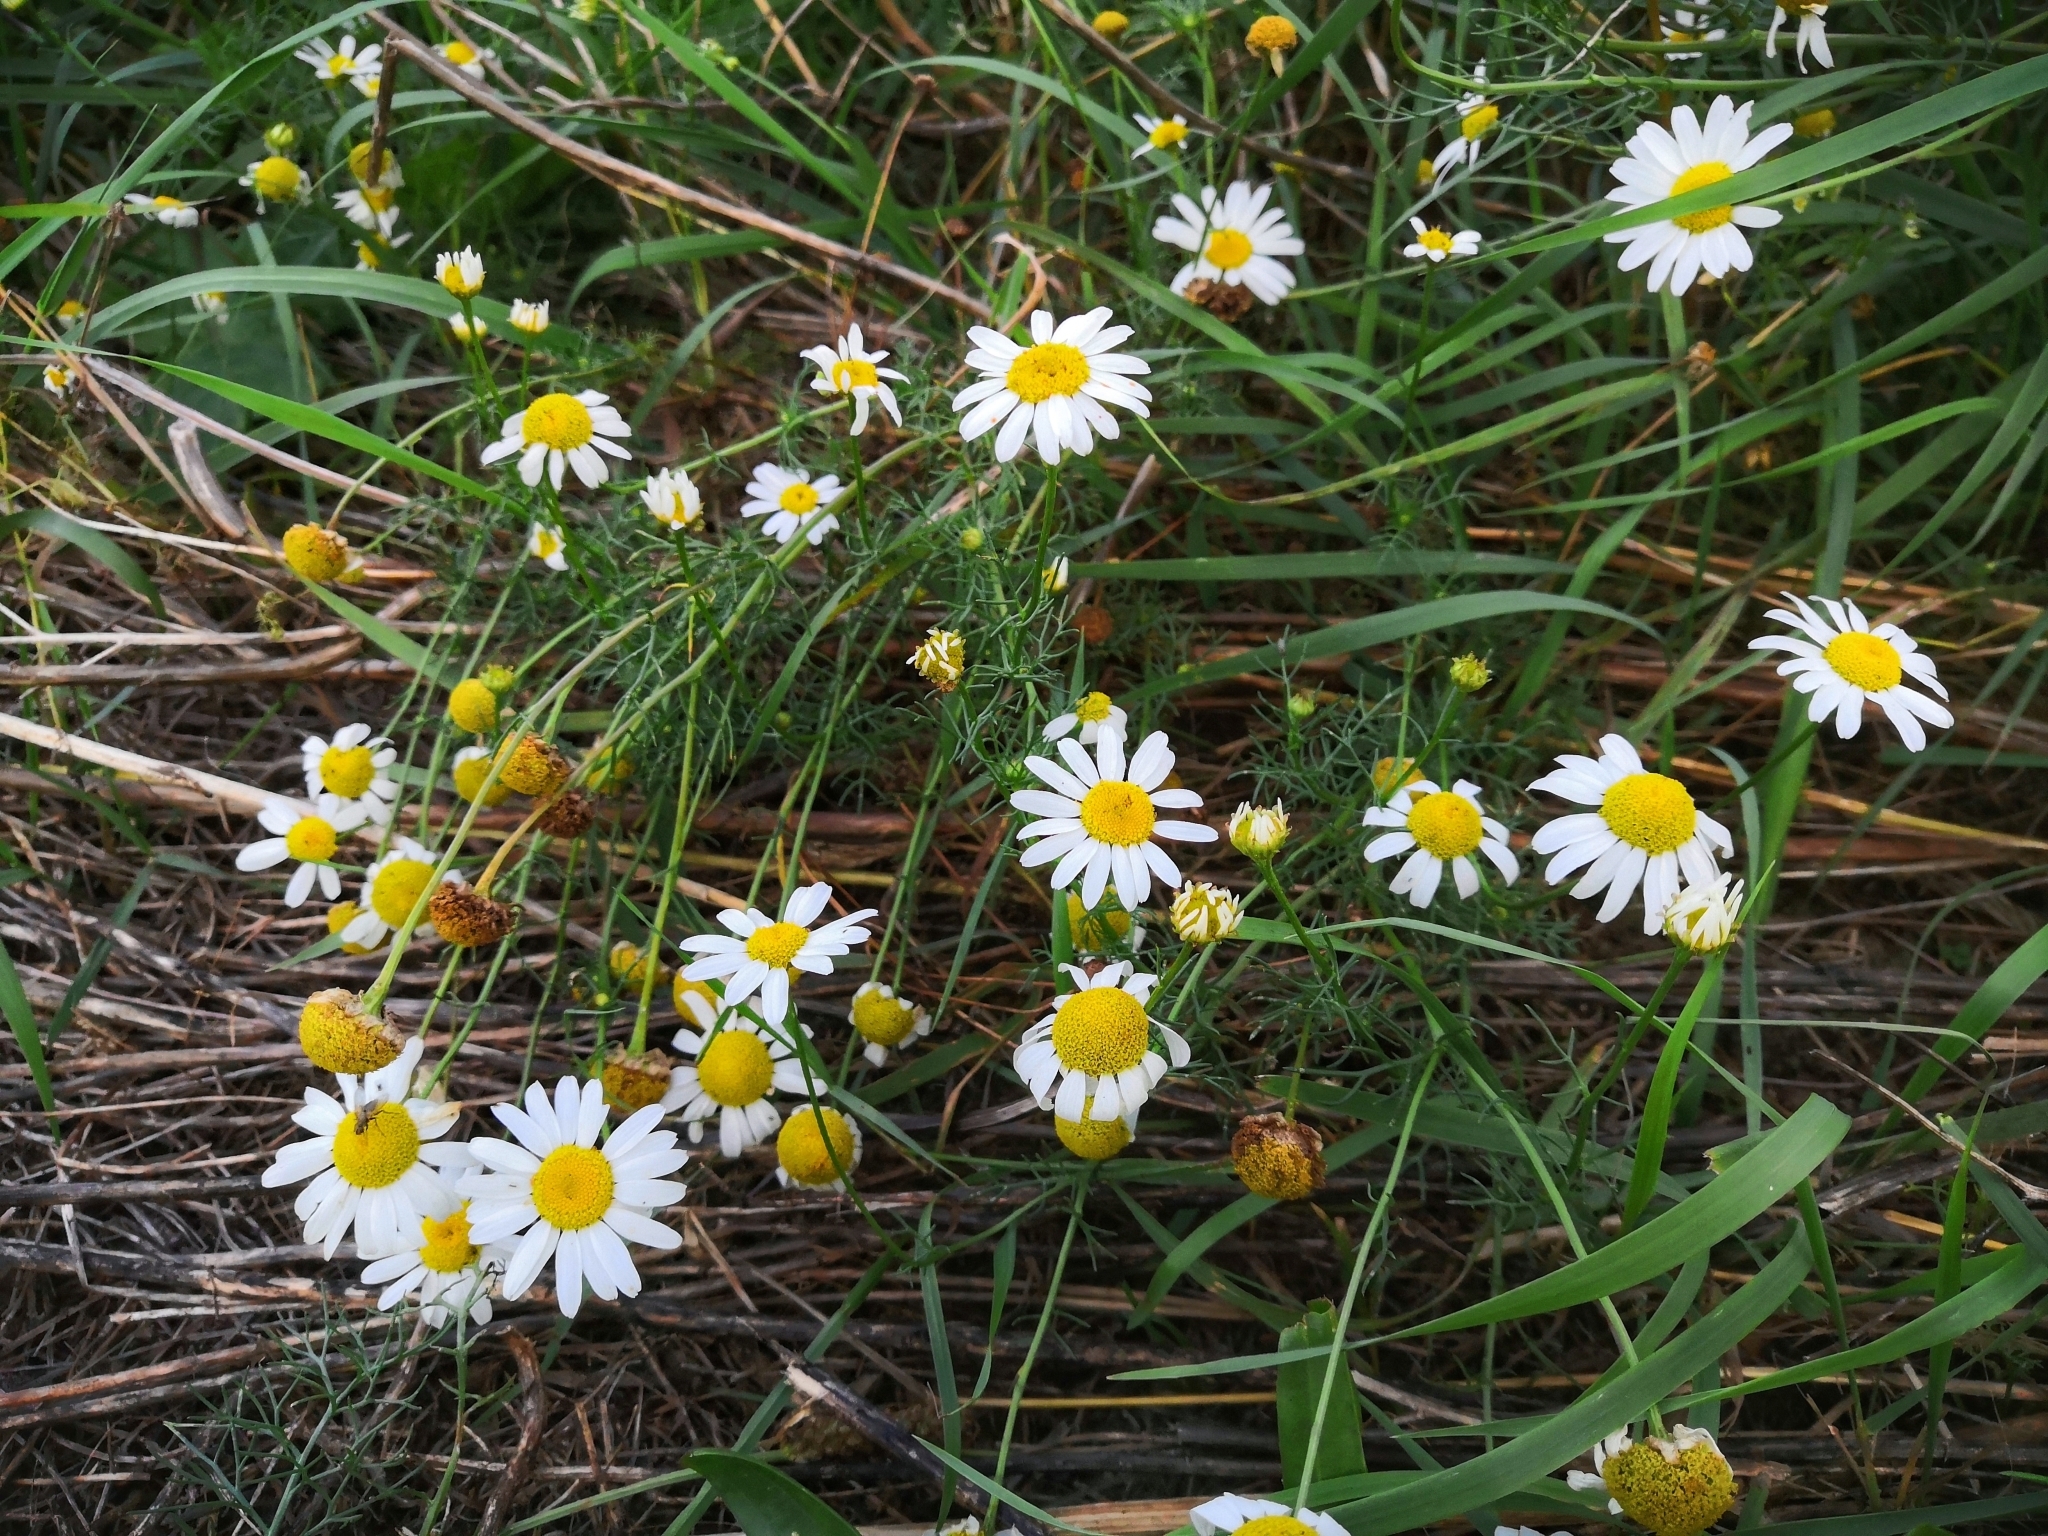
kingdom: Plantae
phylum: Tracheophyta
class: Magnoliopsida
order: Asterales
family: Asteraceae
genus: Tripleurospermum
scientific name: Tripleurospermum inodorum
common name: Scentless mayweed
